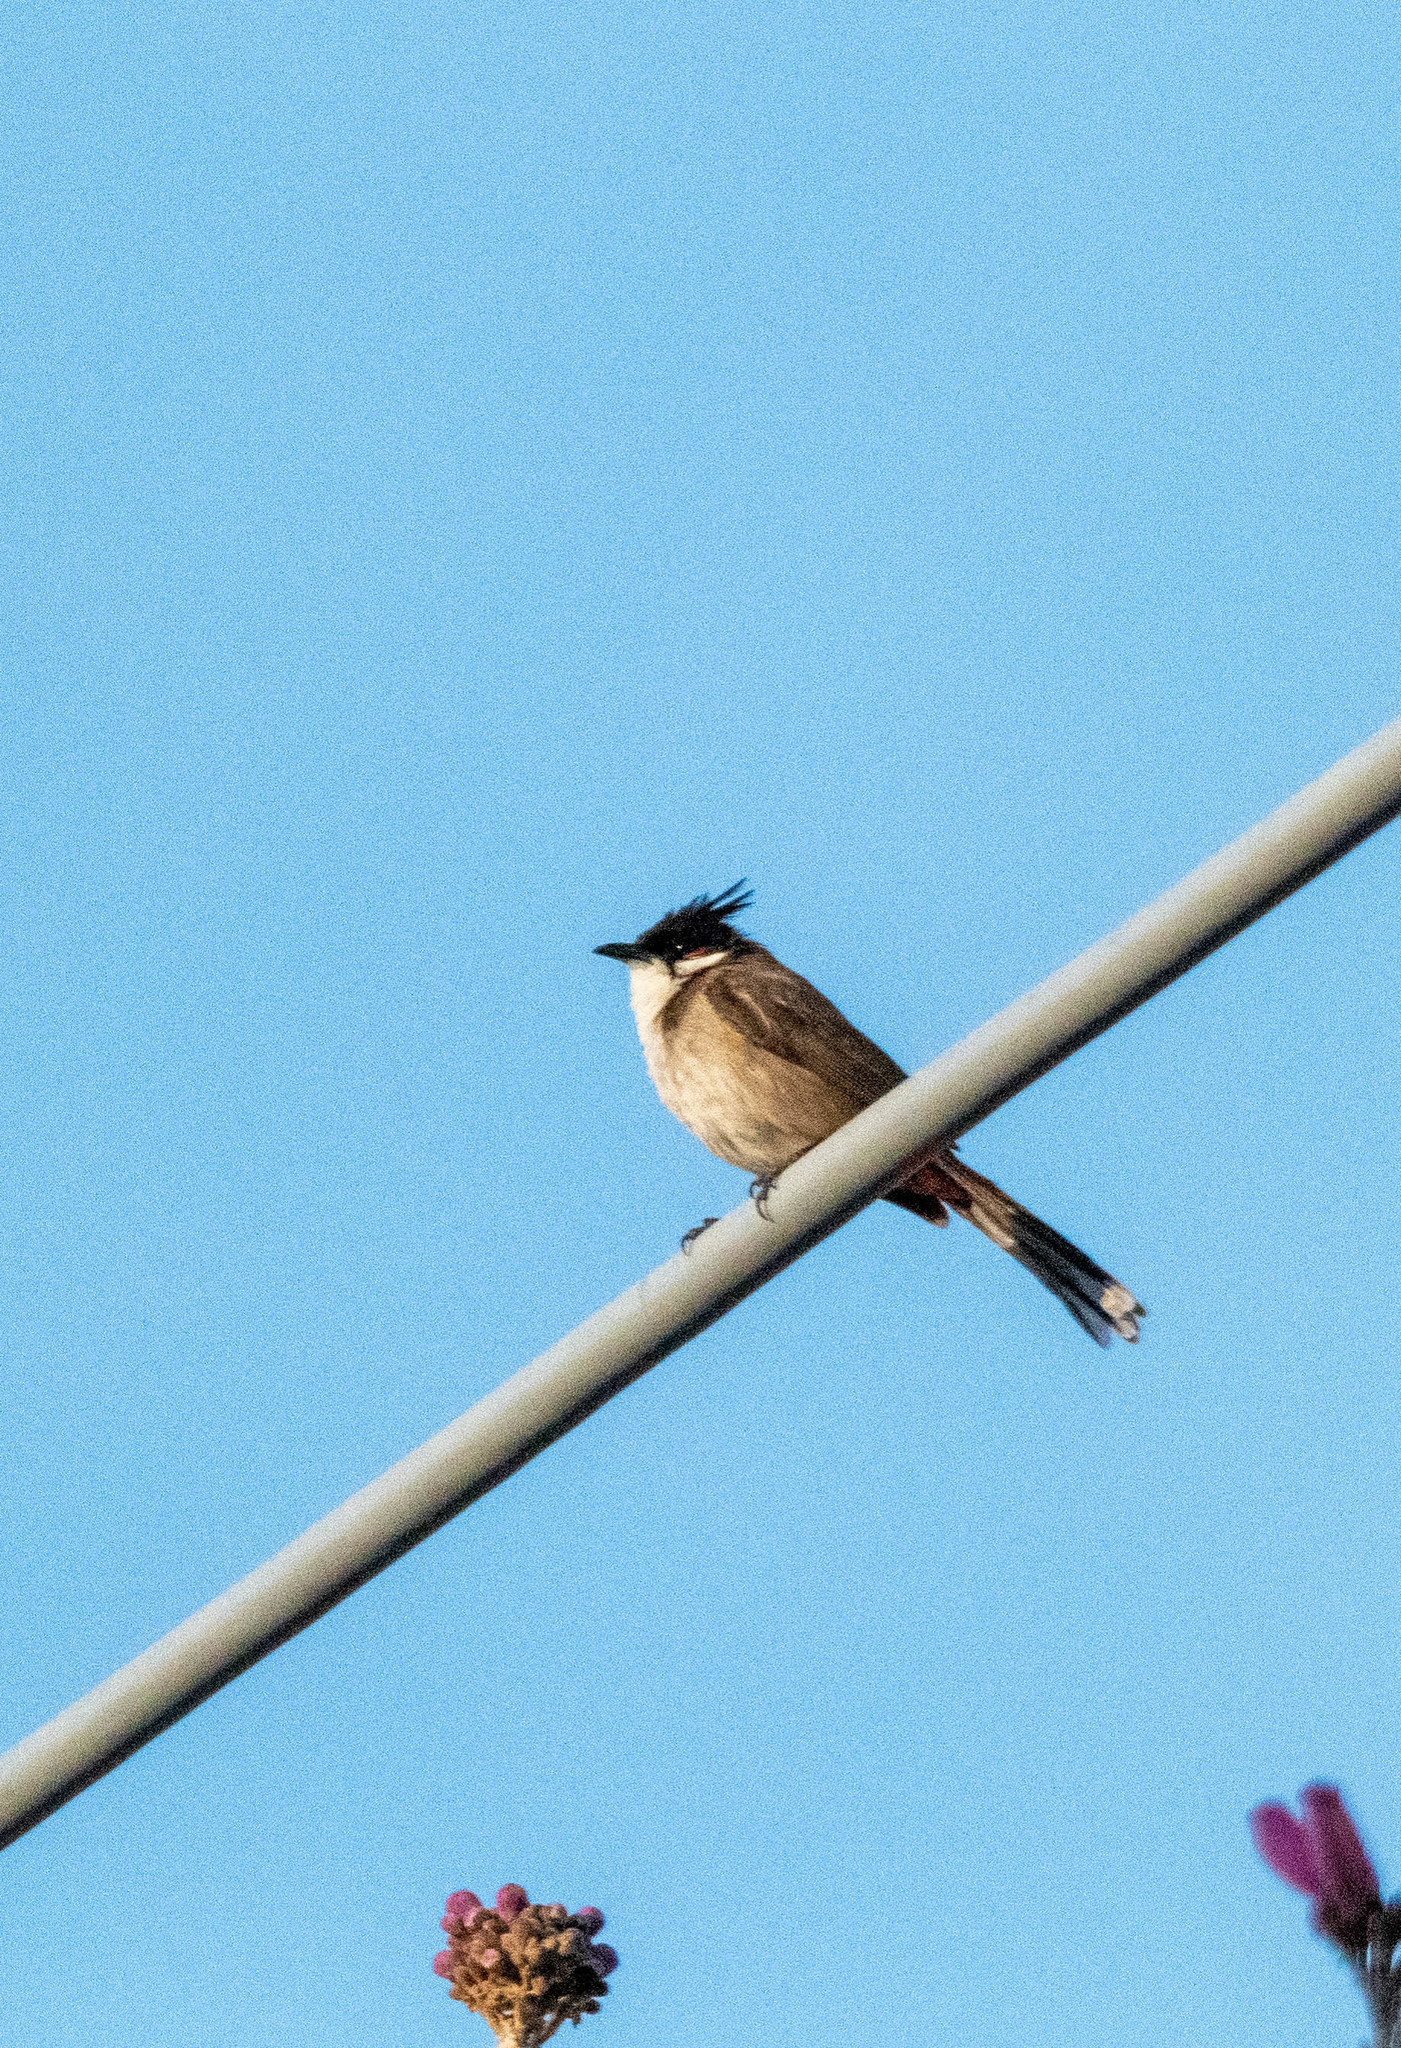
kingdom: Animalia
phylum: Chordata
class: Aves
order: Passeriformes
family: Pycnonotidae
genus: Pycnonotus
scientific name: Pycnonotus jocosus
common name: Red-whiskered bulbul
